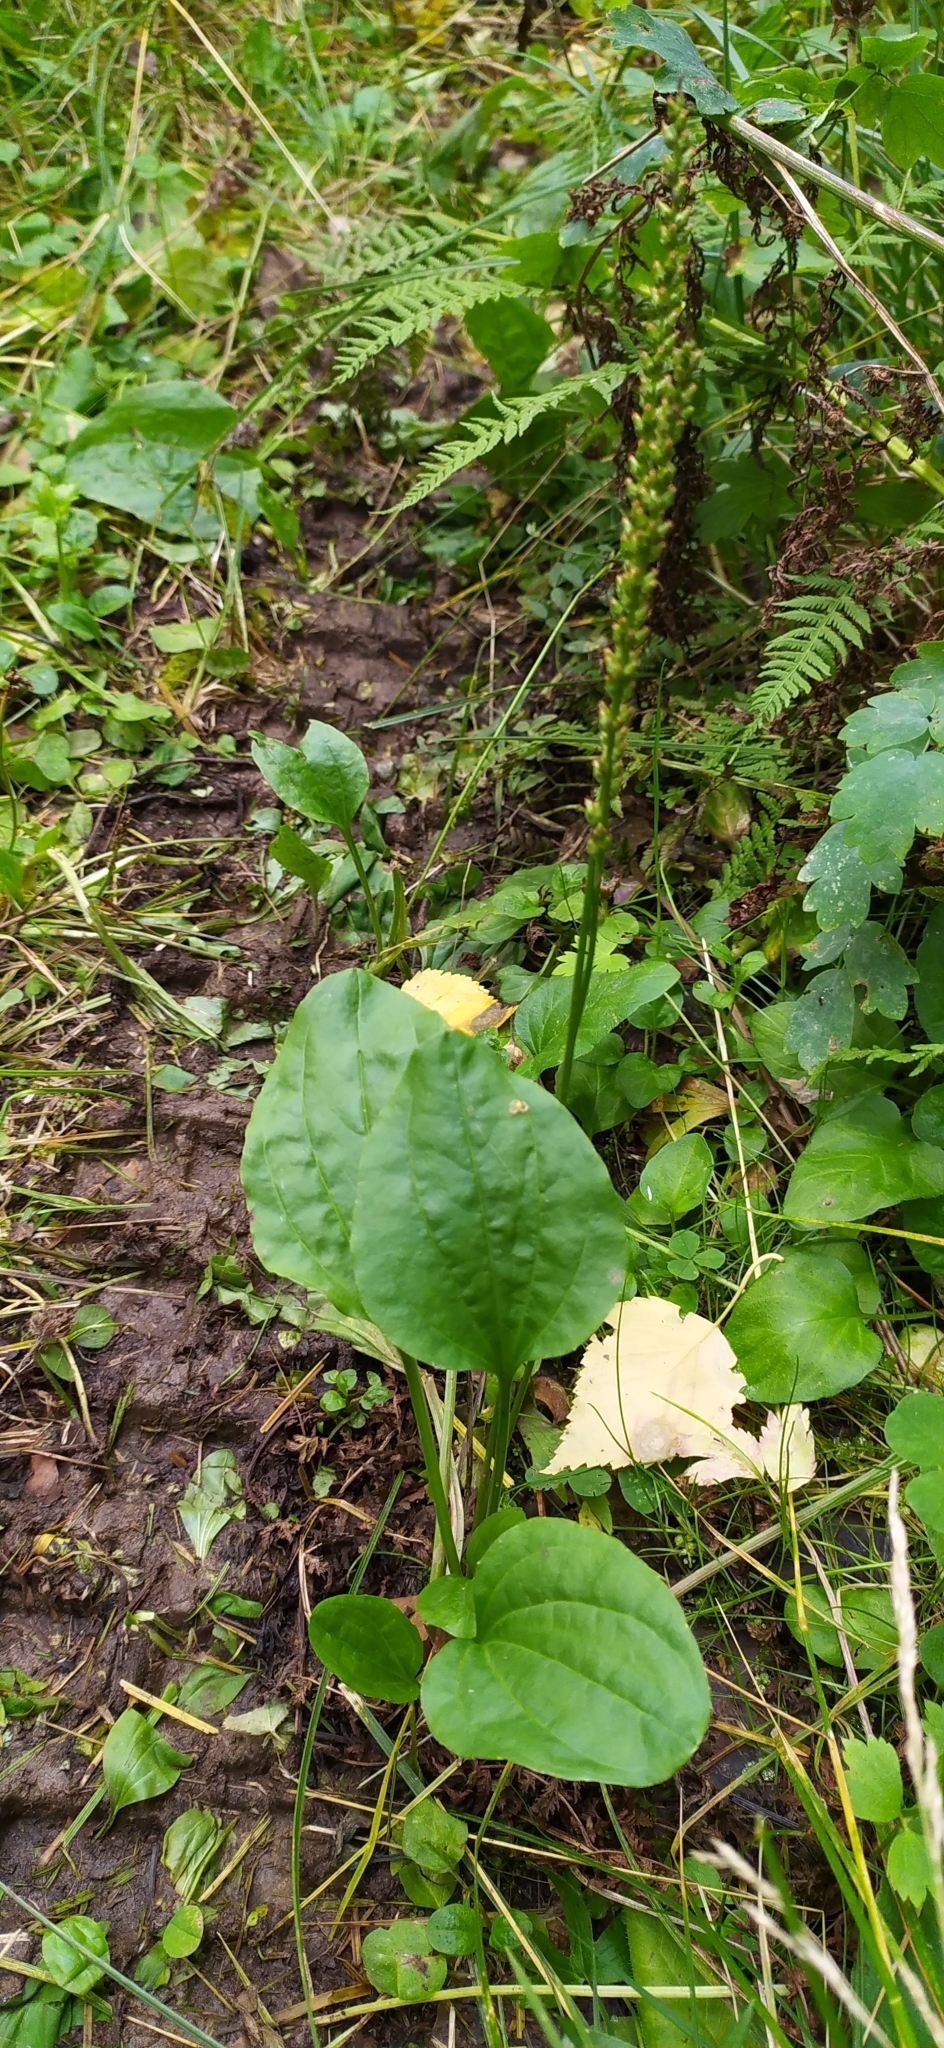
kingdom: Plantae
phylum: Tracheophyta
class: Magnoliopsida
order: Lamiales
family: Plantaginaceae
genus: Plantago
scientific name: Plantago major
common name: Common plantain
